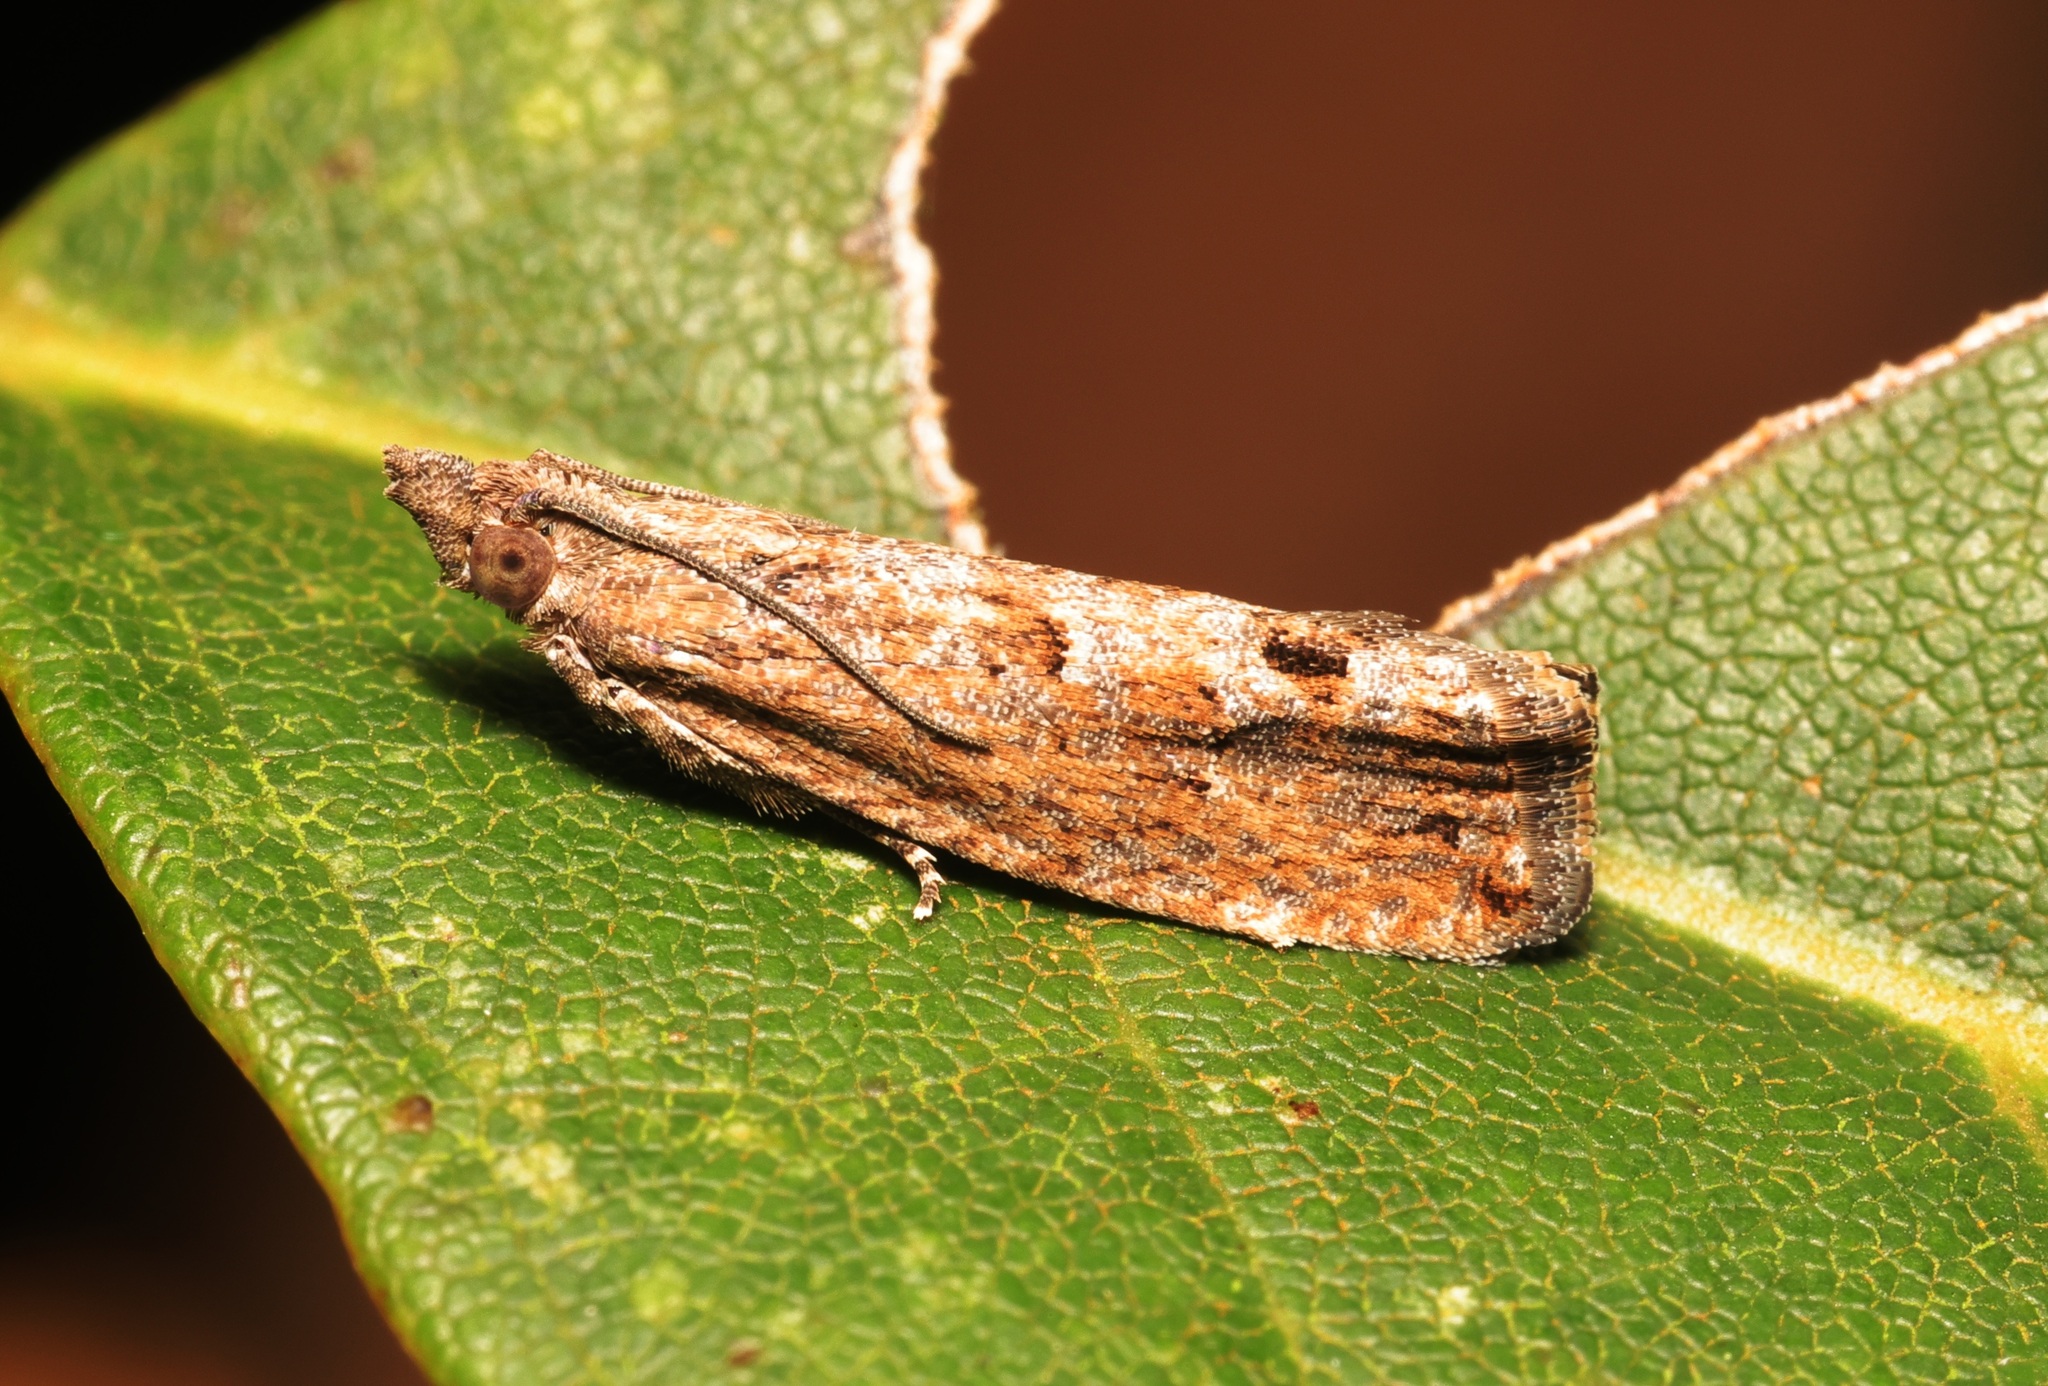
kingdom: Animalia
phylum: Arthropoda
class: Insecta
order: Lepidoptera
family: Tortricidae
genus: Strepsicrates
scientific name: Strepsicrates semicanella
